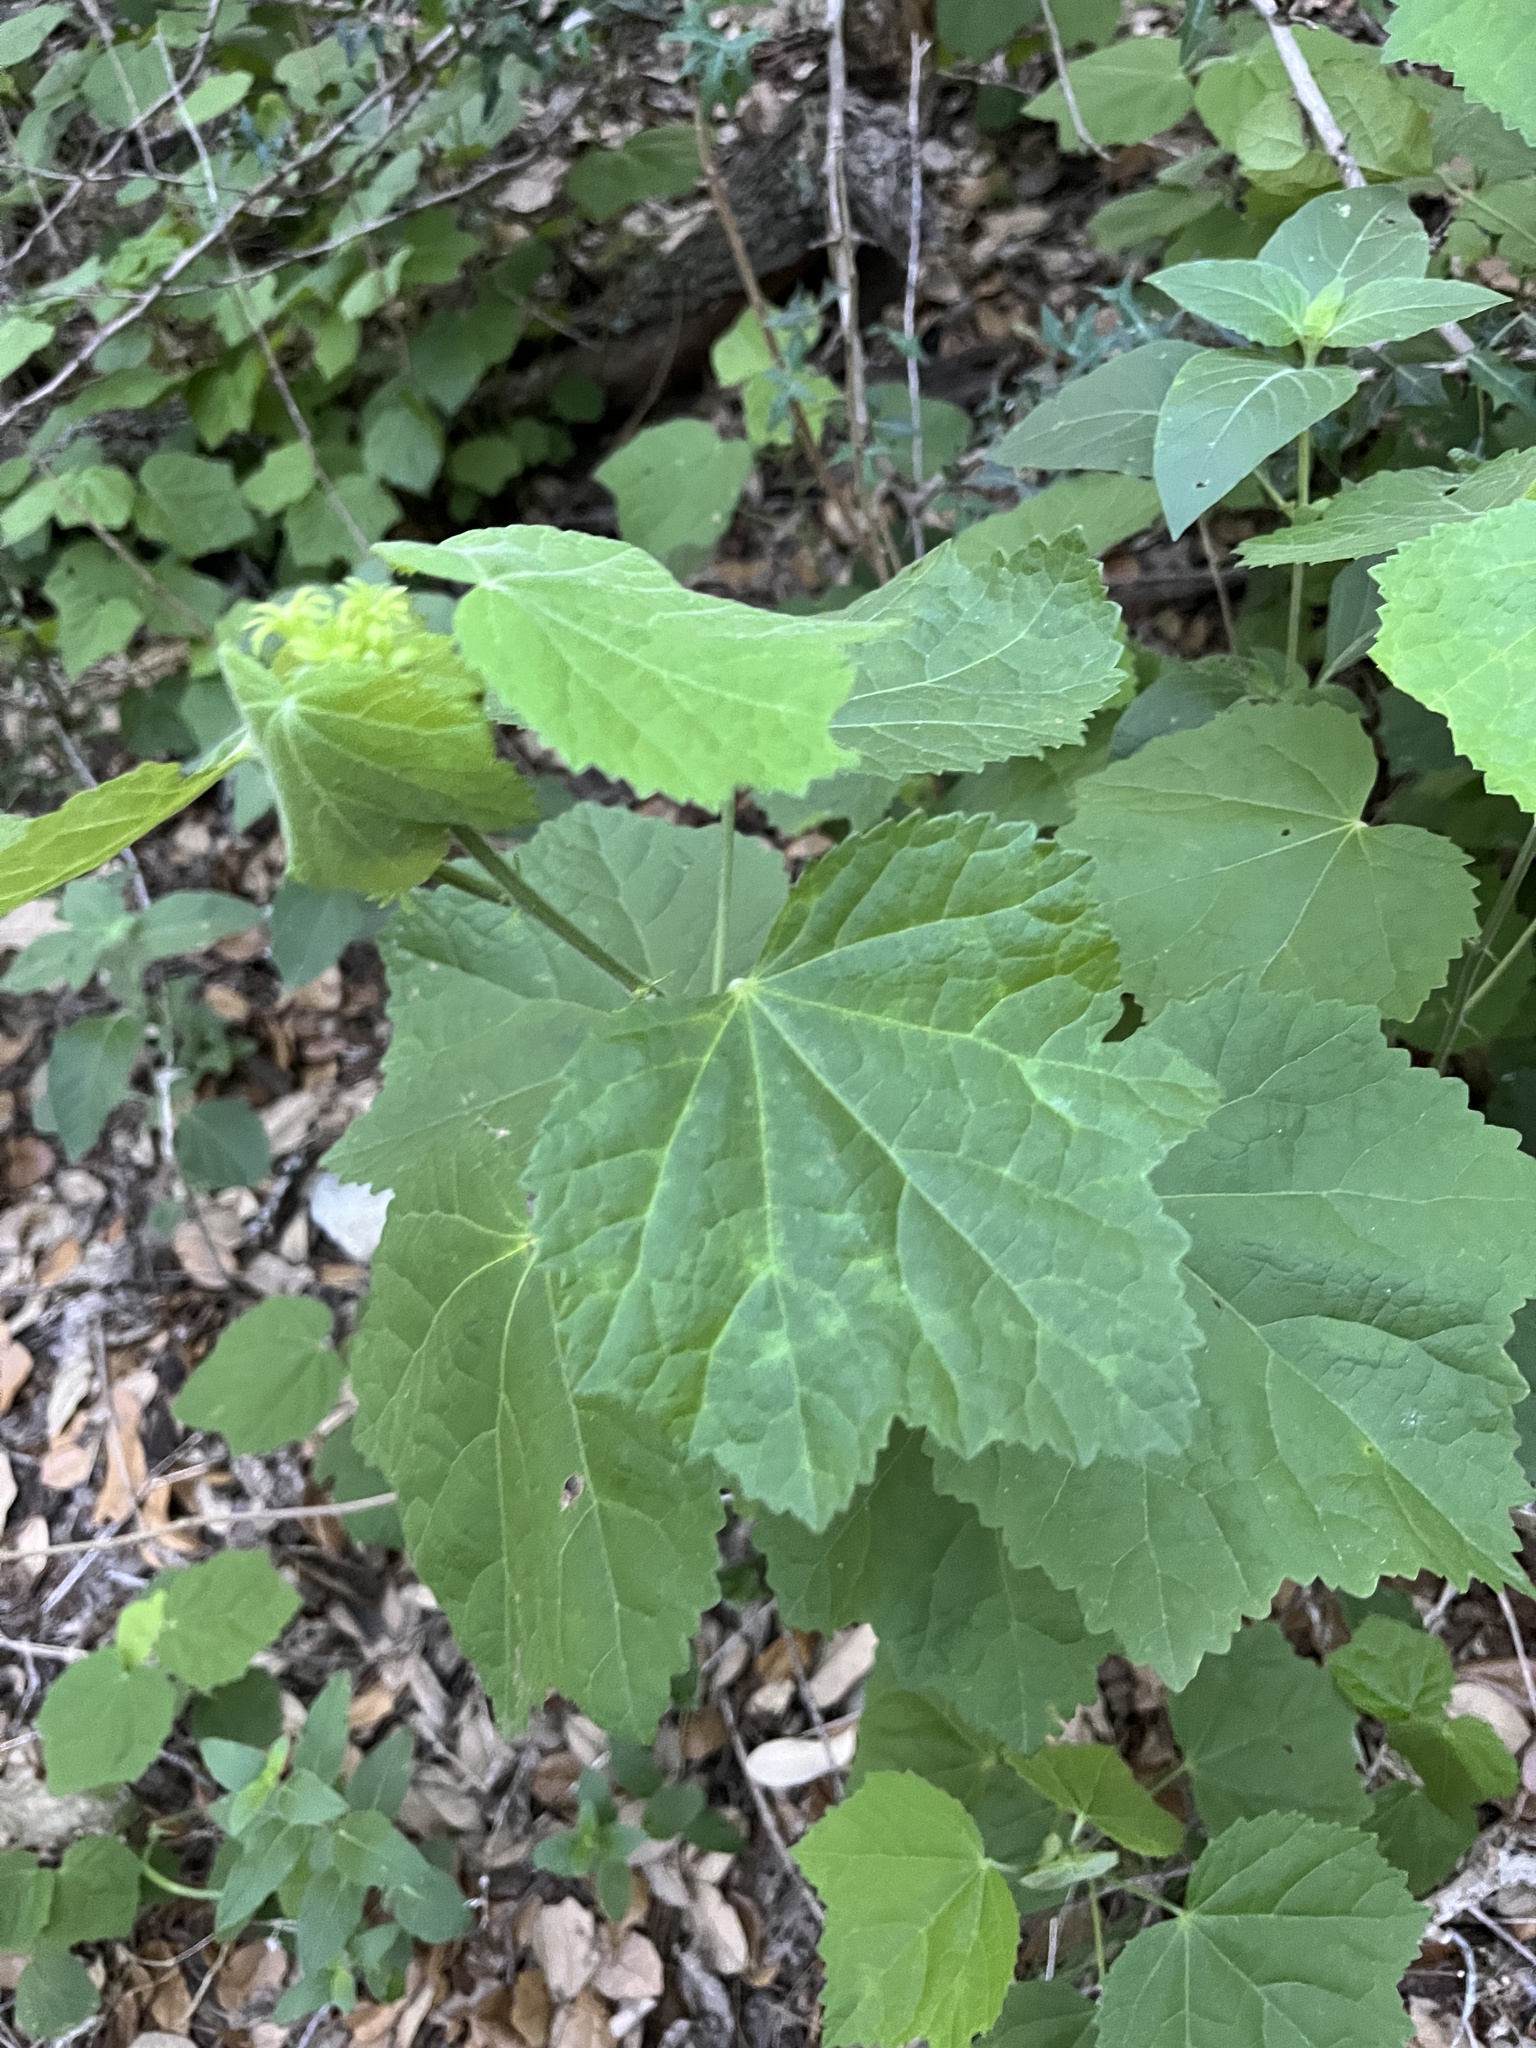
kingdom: Plantae
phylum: Tracheophyta
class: Magnoliopsida
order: Malvales
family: Malvaceae
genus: Malvaviscus
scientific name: Malvaviscus arboreus
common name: Wax mallow
